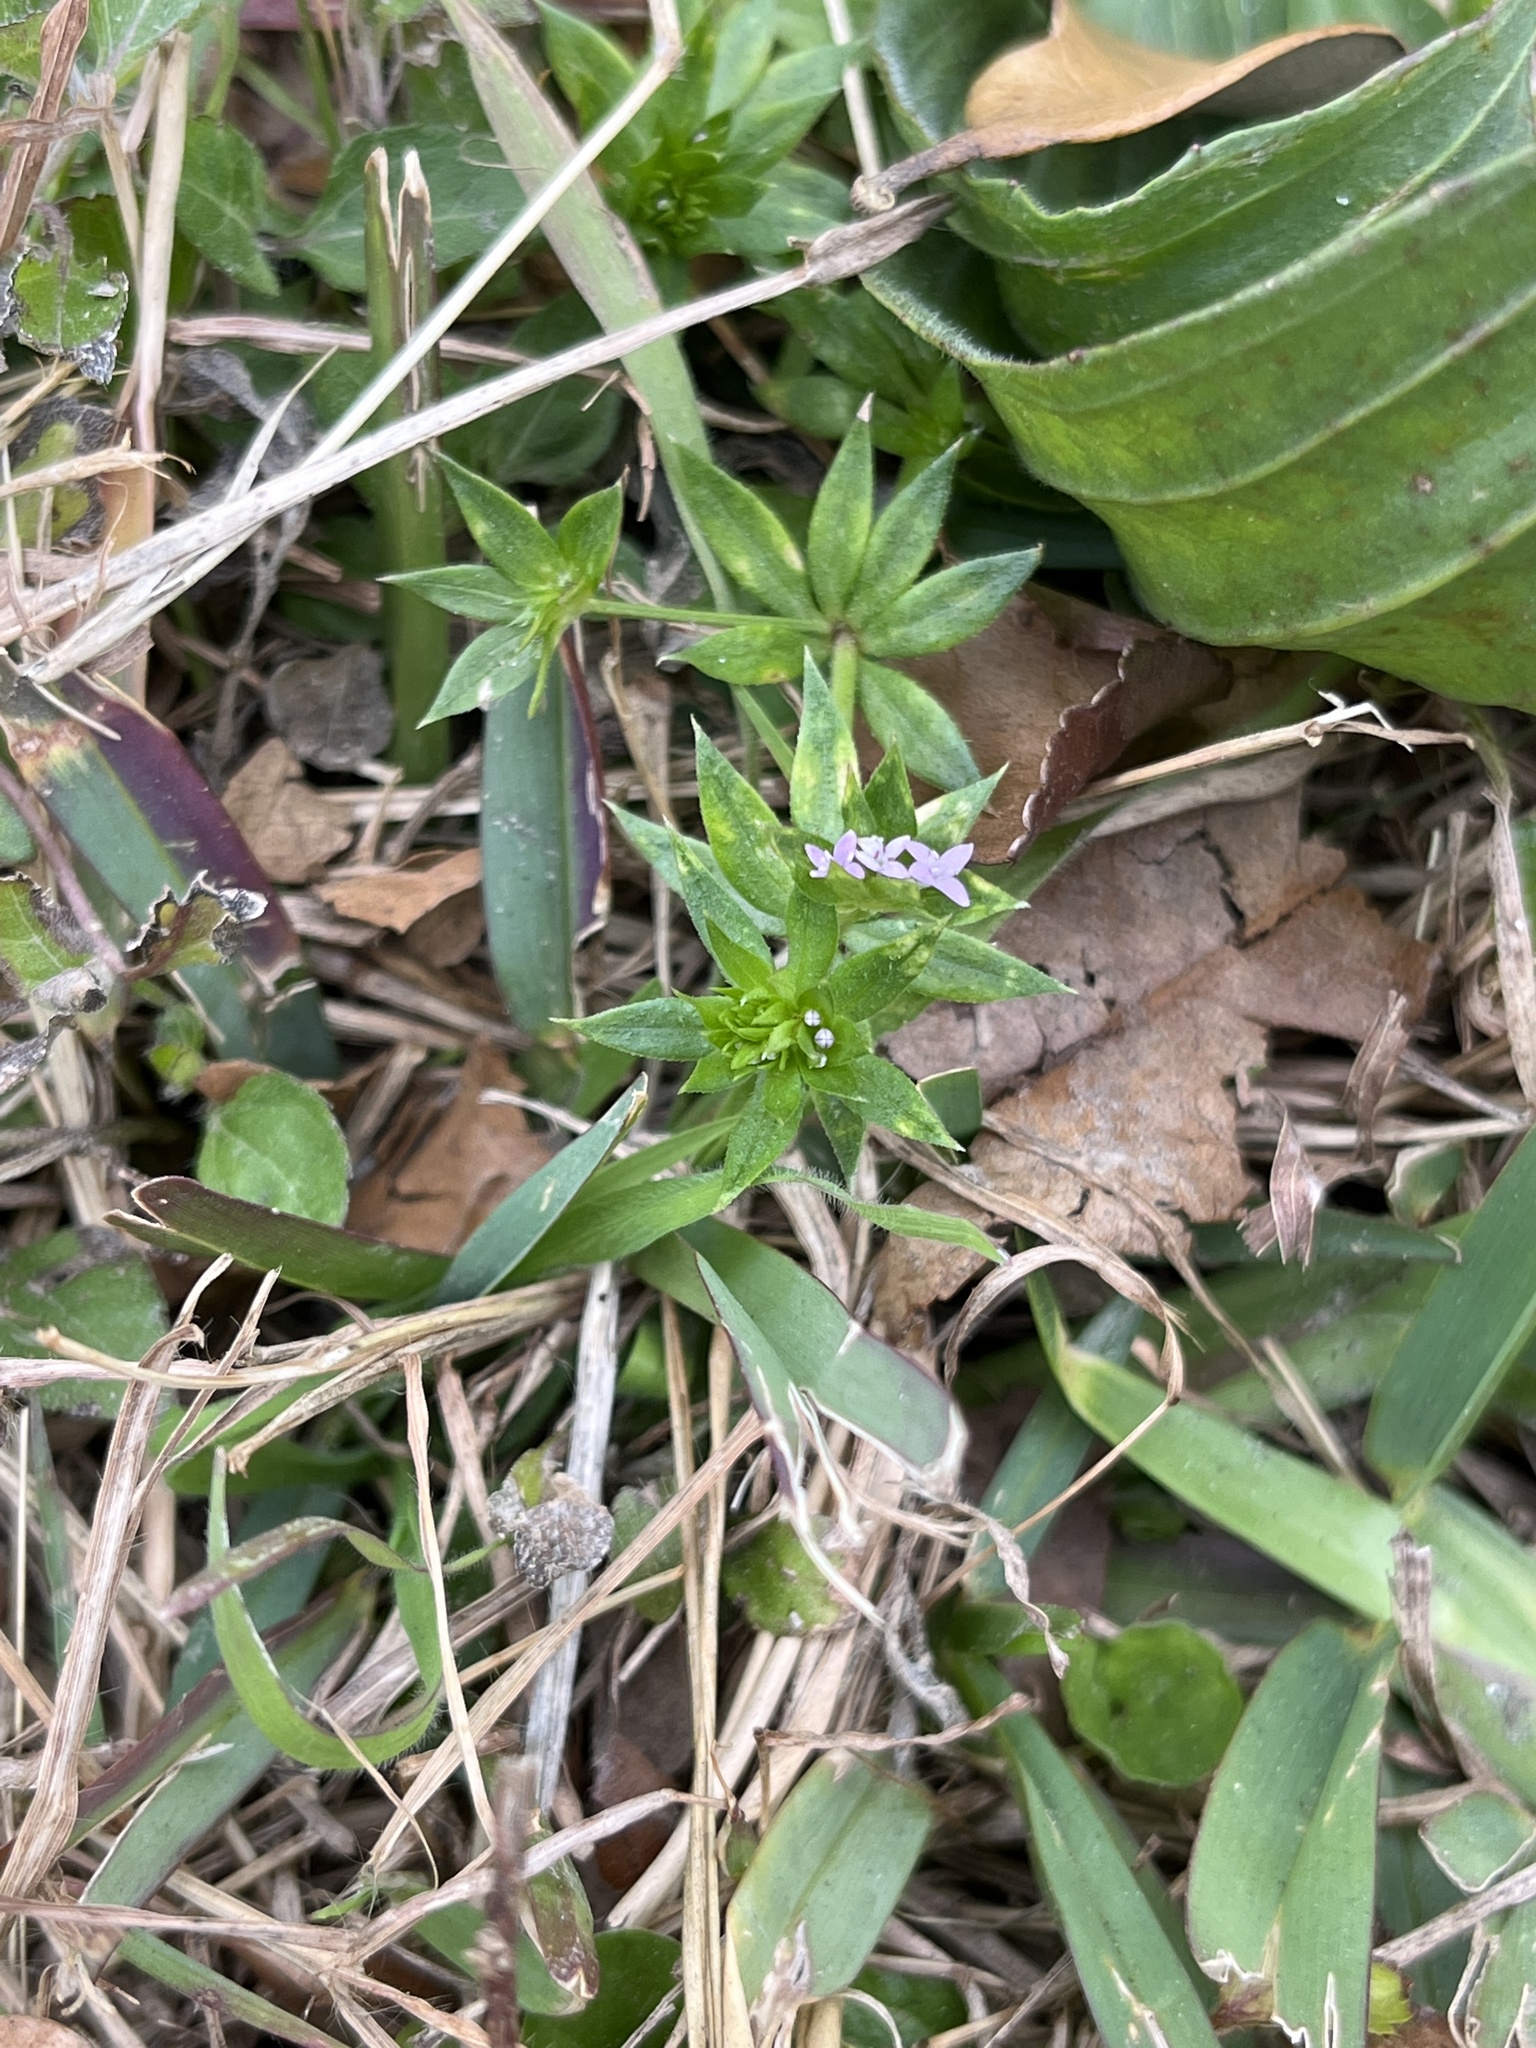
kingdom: Plantae
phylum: Tracheophyta
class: Magnoliopsida
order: Gentianales
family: Rubiaceae
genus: Sherardia
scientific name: Sherardia arvensis
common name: Field madder
